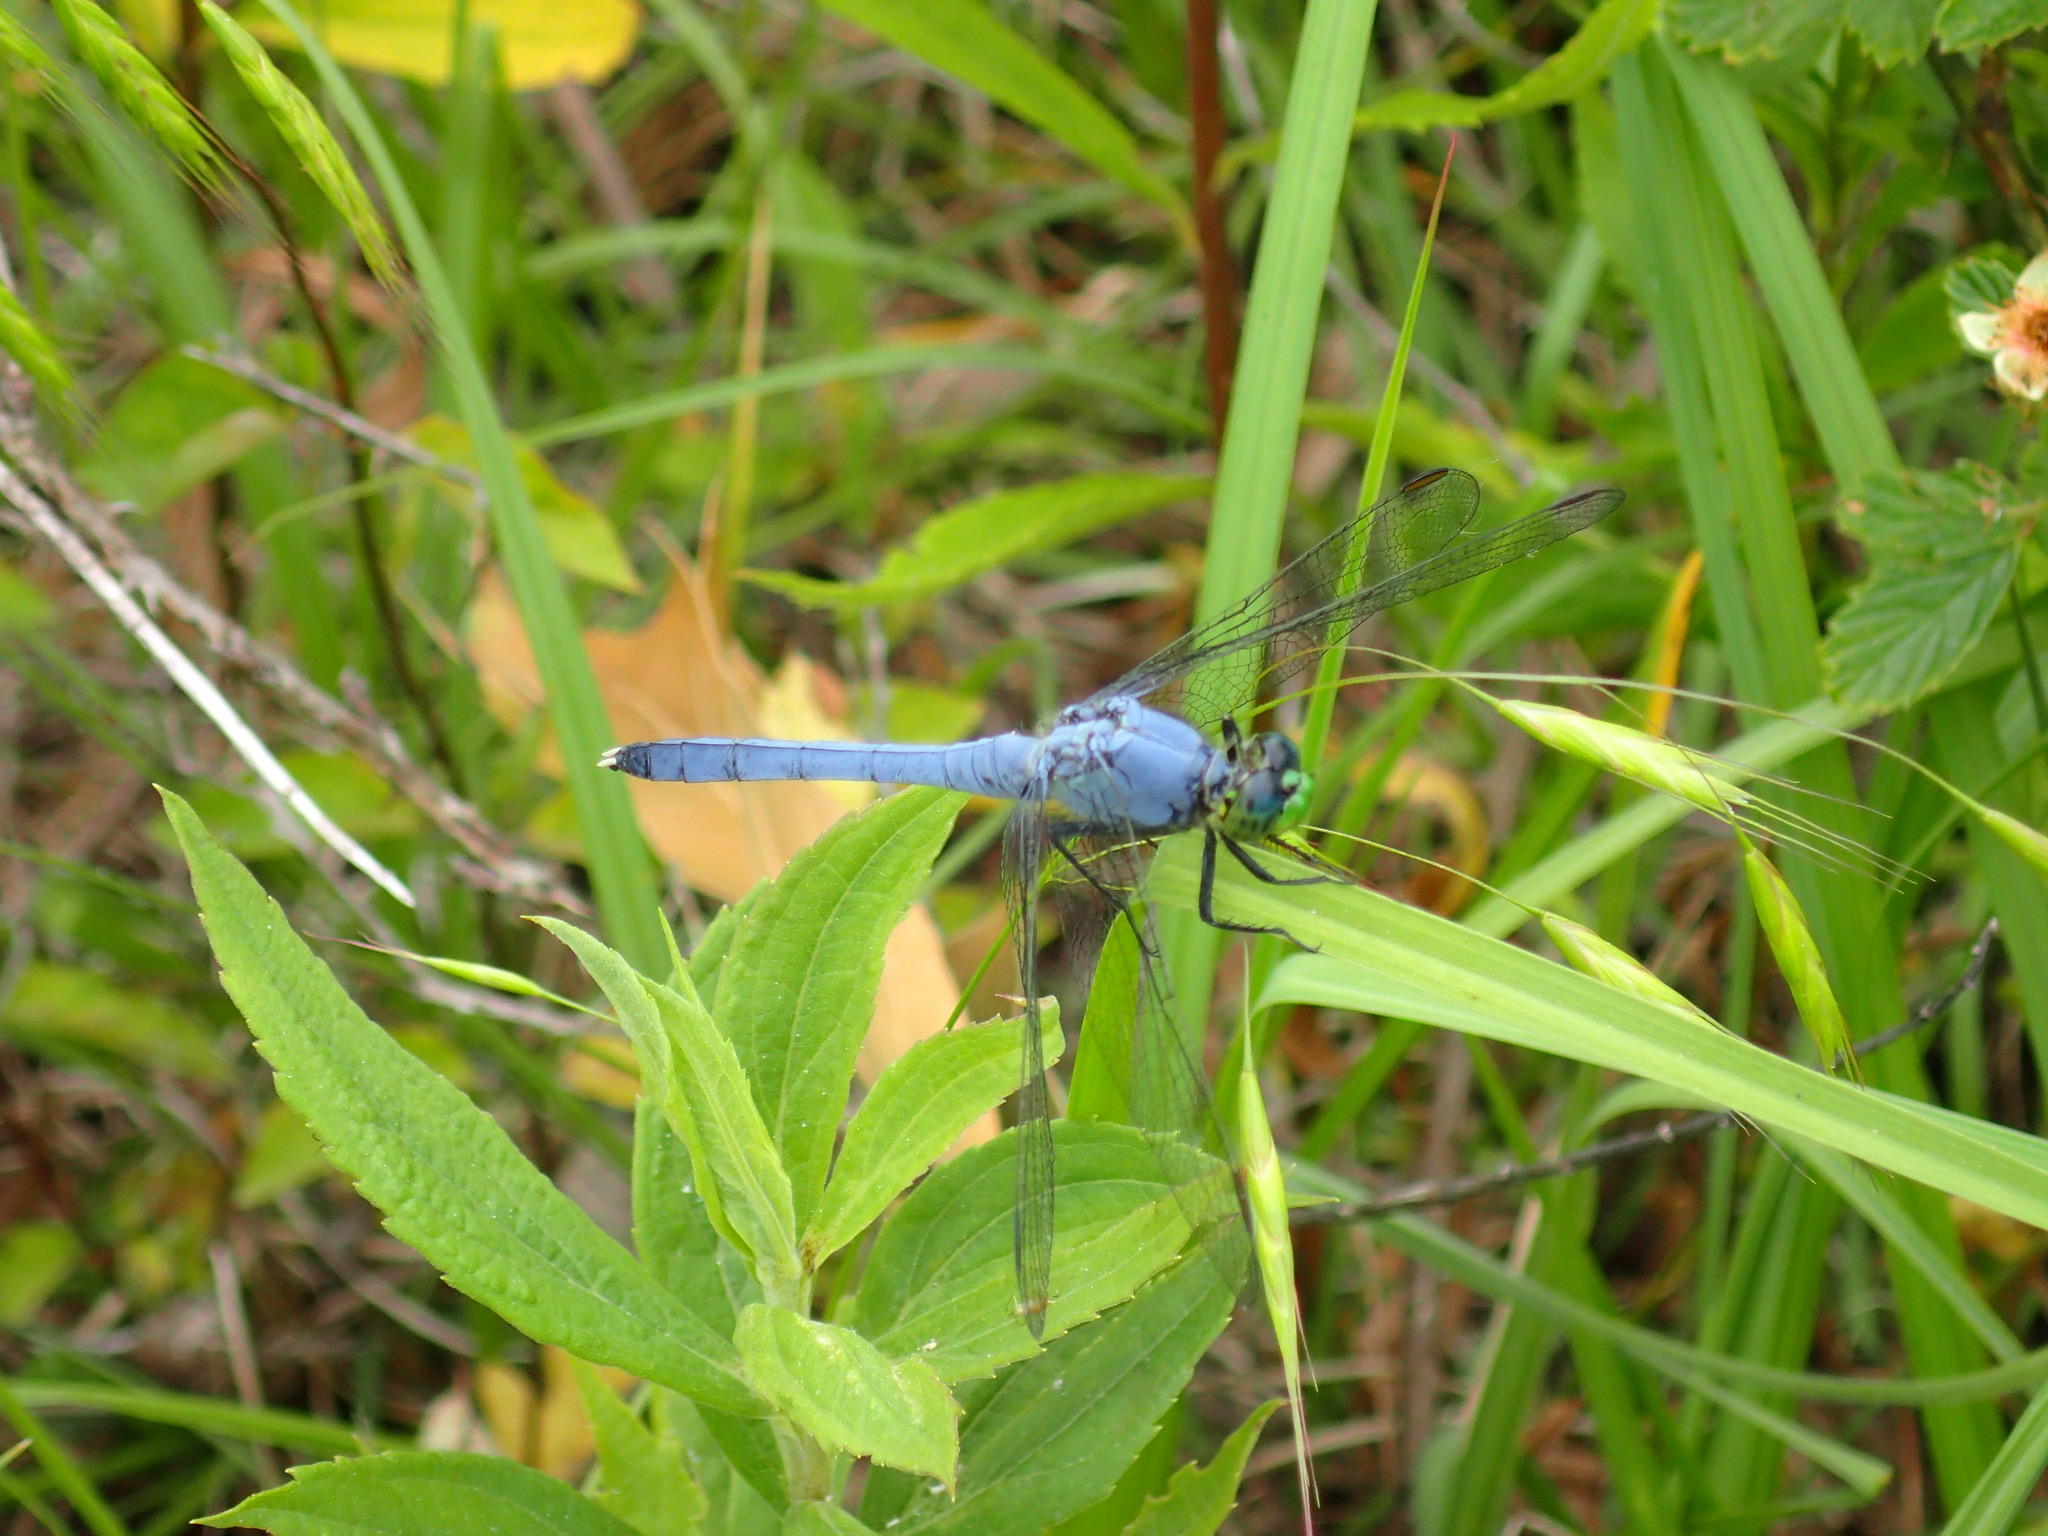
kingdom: Animalia
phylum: Arthropoda
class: Insecta
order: Odonata
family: Libellulidae
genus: Erythemis
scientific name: Erythemis simplicicollis
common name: Eastern pondhawk
